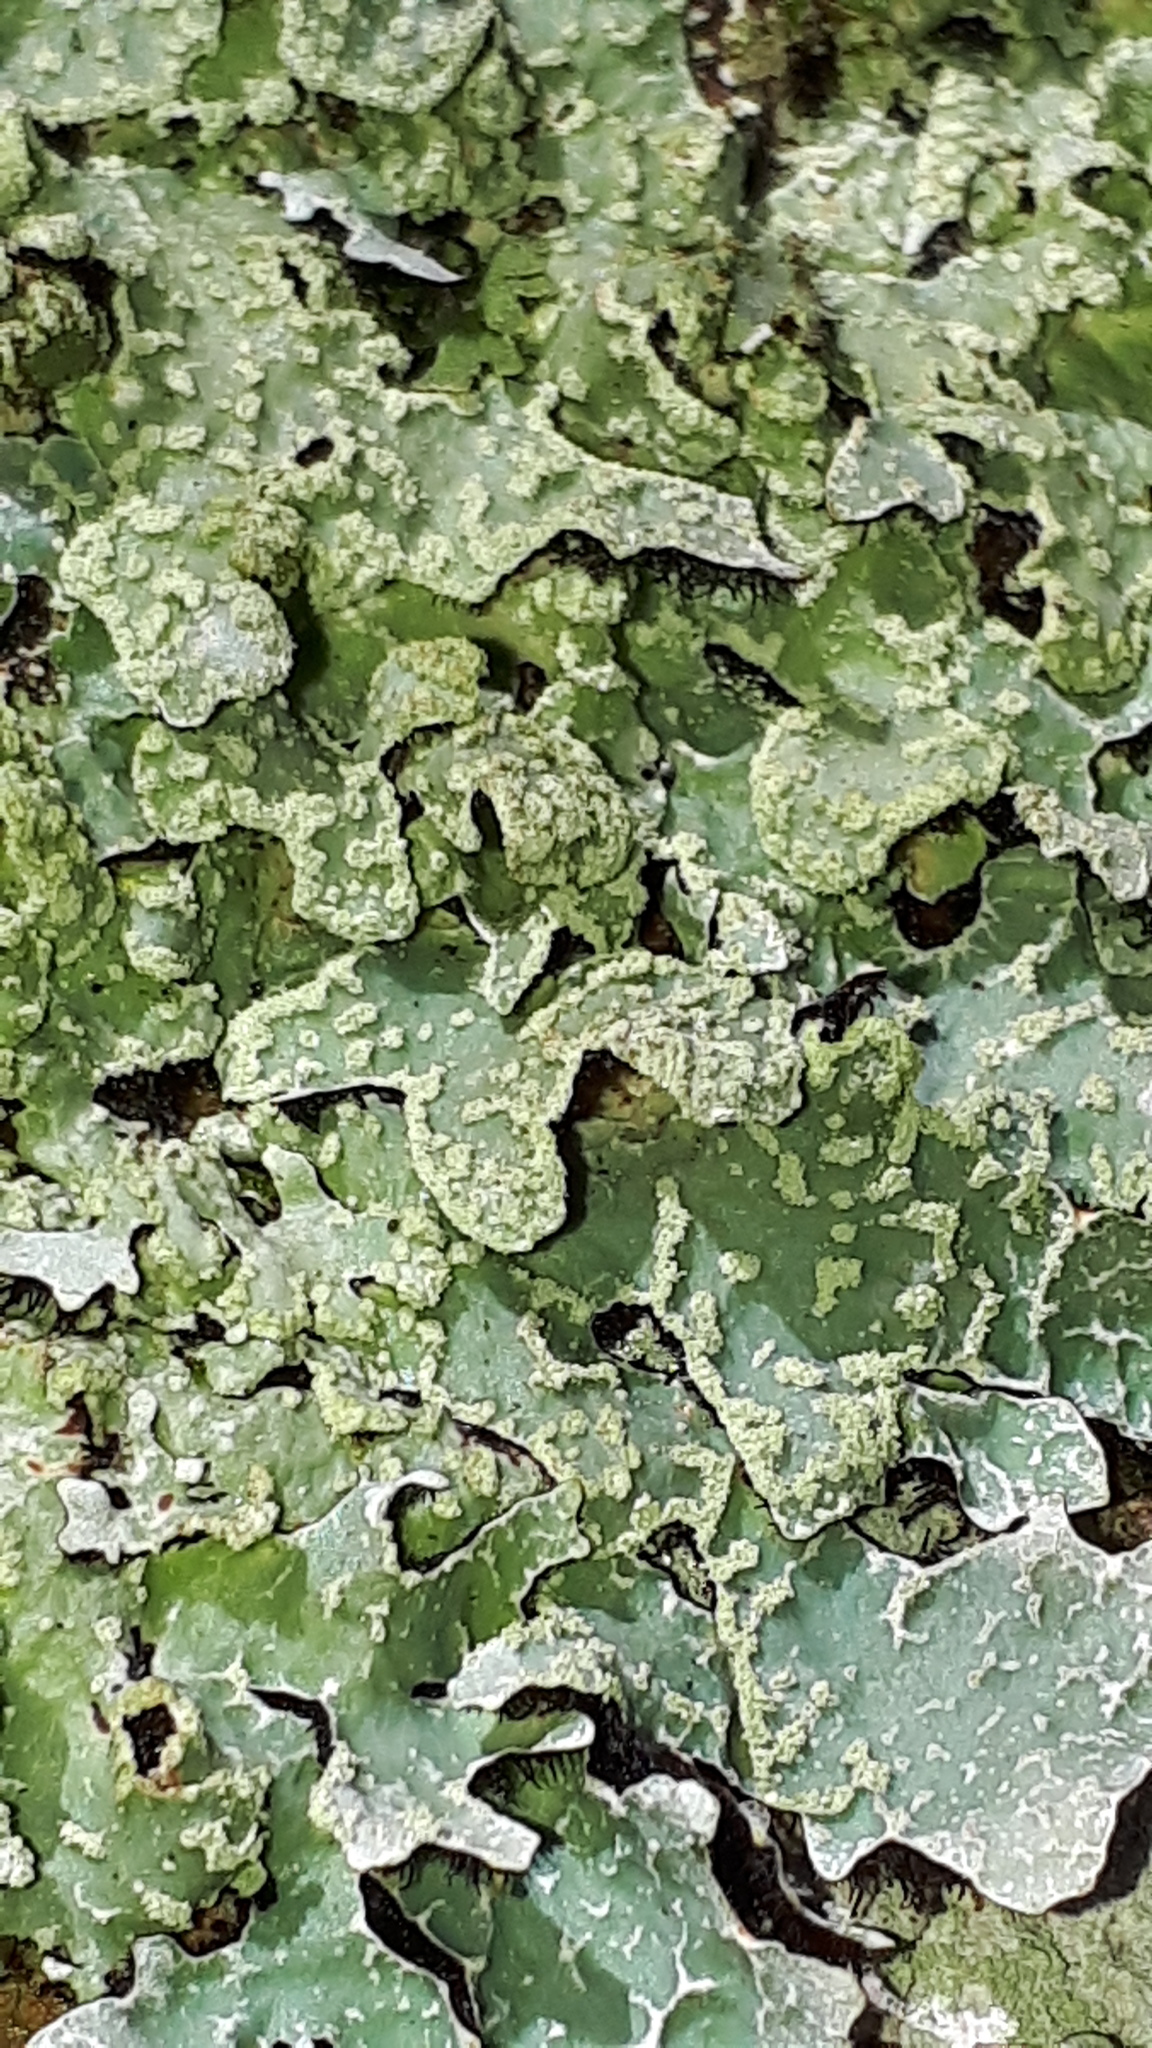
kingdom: Fungi
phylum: Ascomycota
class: Lecanoromycetes
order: Lecanorales
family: Parmeliaceae
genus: Parmelia
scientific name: Parmelia sulcata
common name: Netted shield lichen
